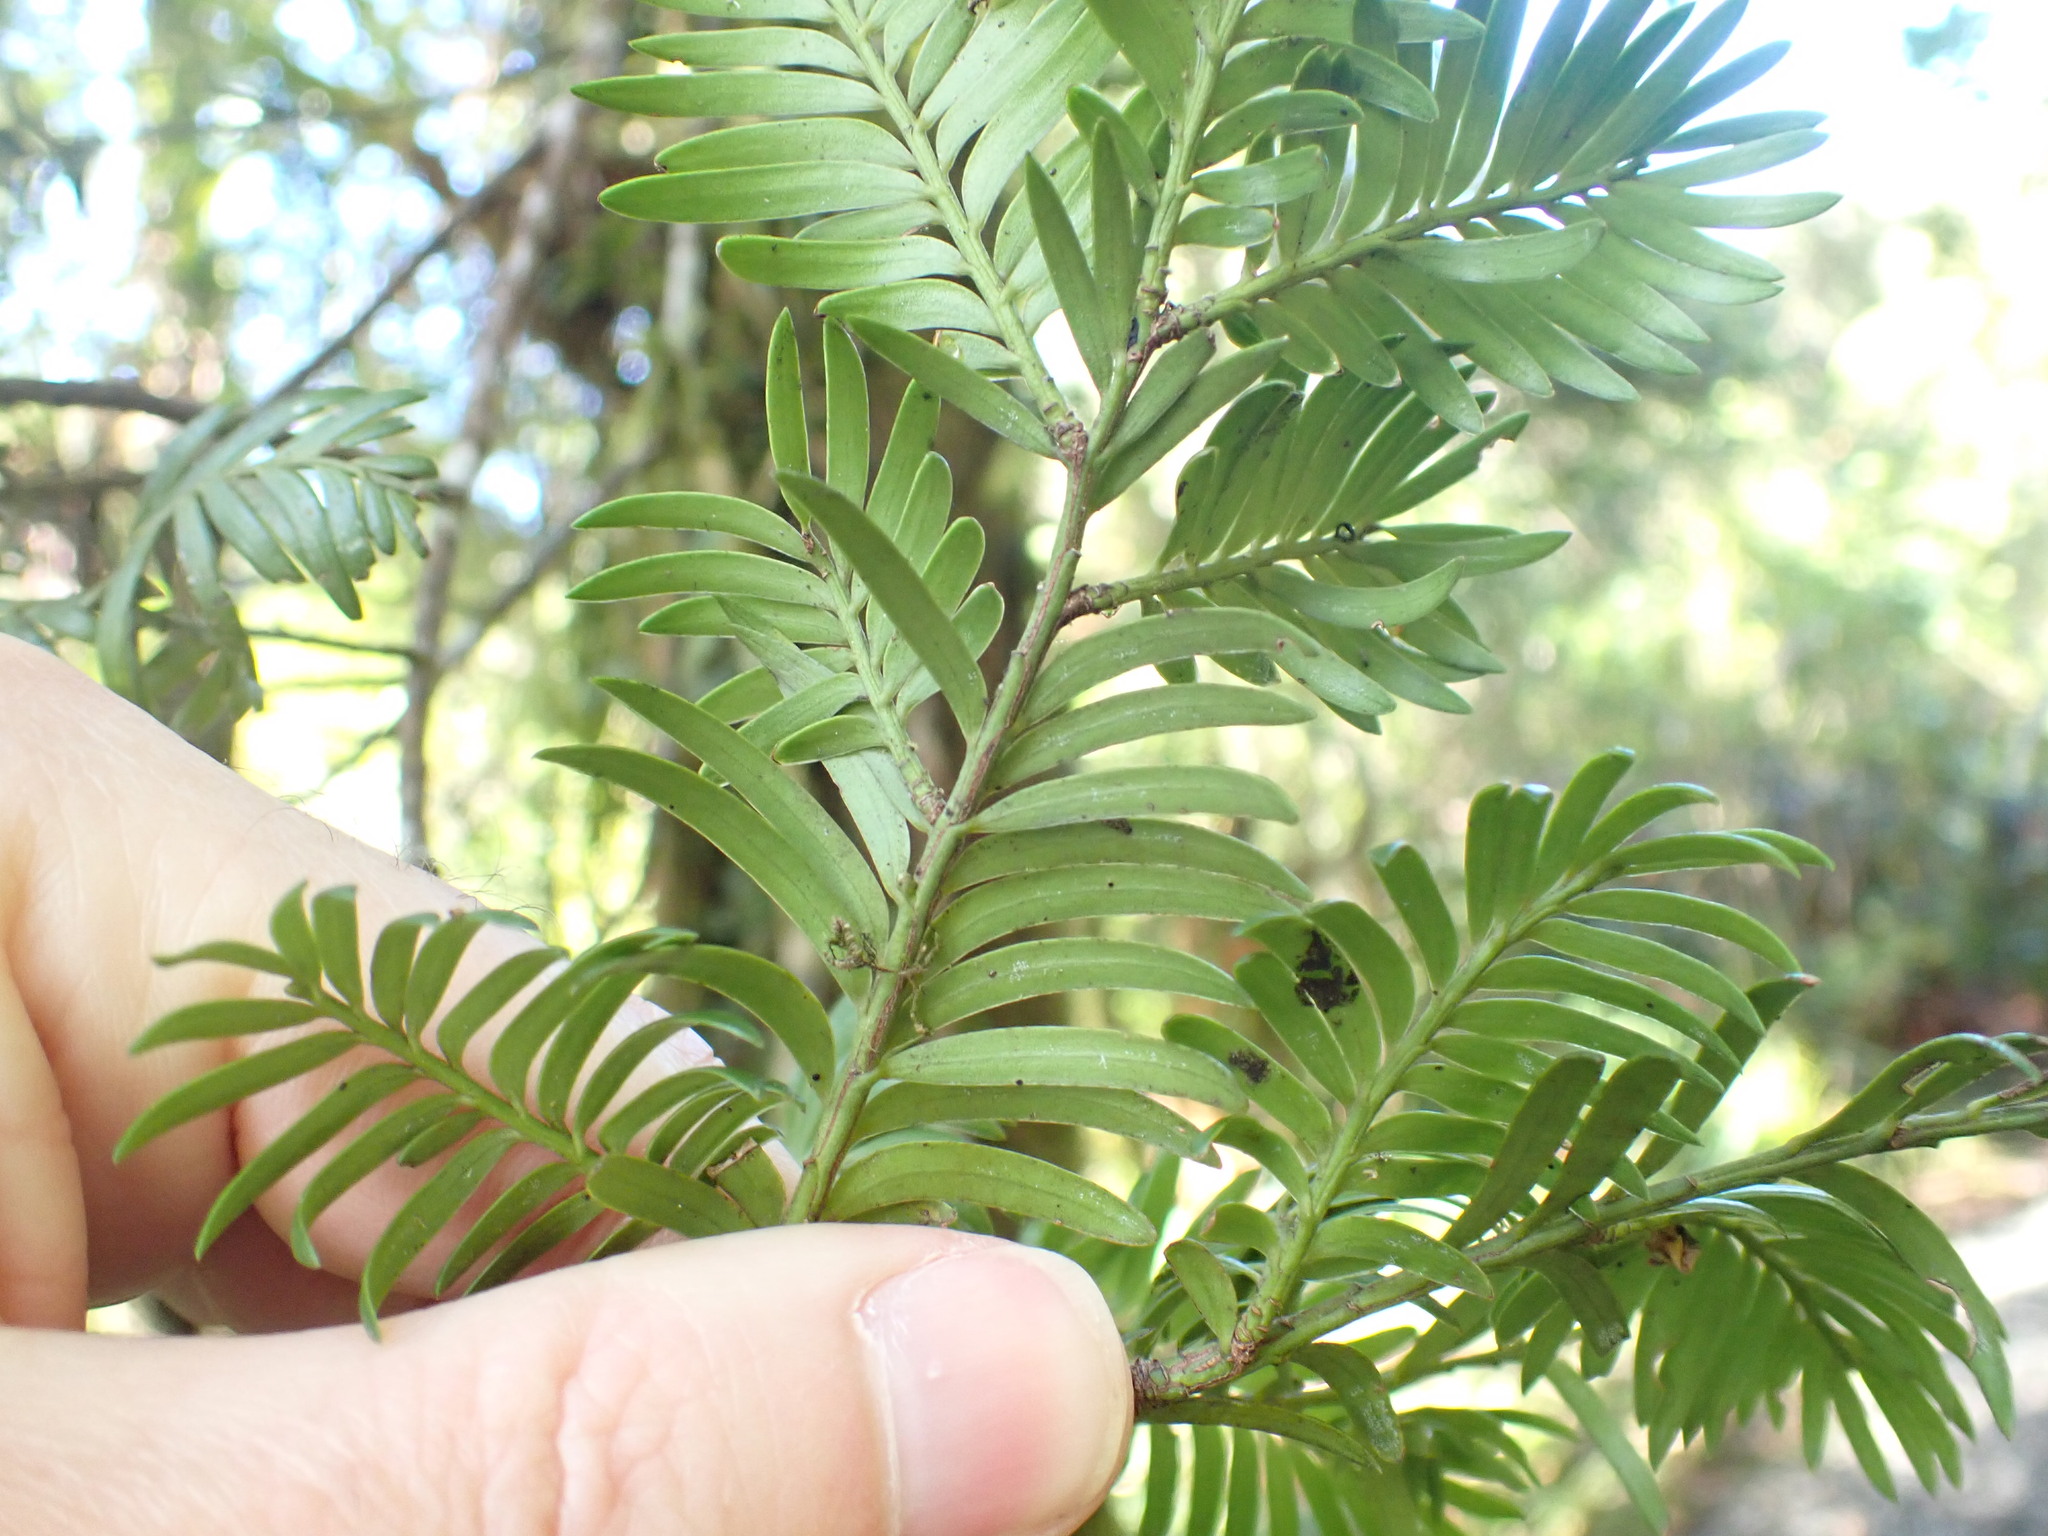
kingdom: Plantae
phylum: Tracheophyta
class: Pinopsida
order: Pinales
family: Podocarpaceae
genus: Prumnopitys
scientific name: Prumnopitys ferruginea
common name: Brown pine
